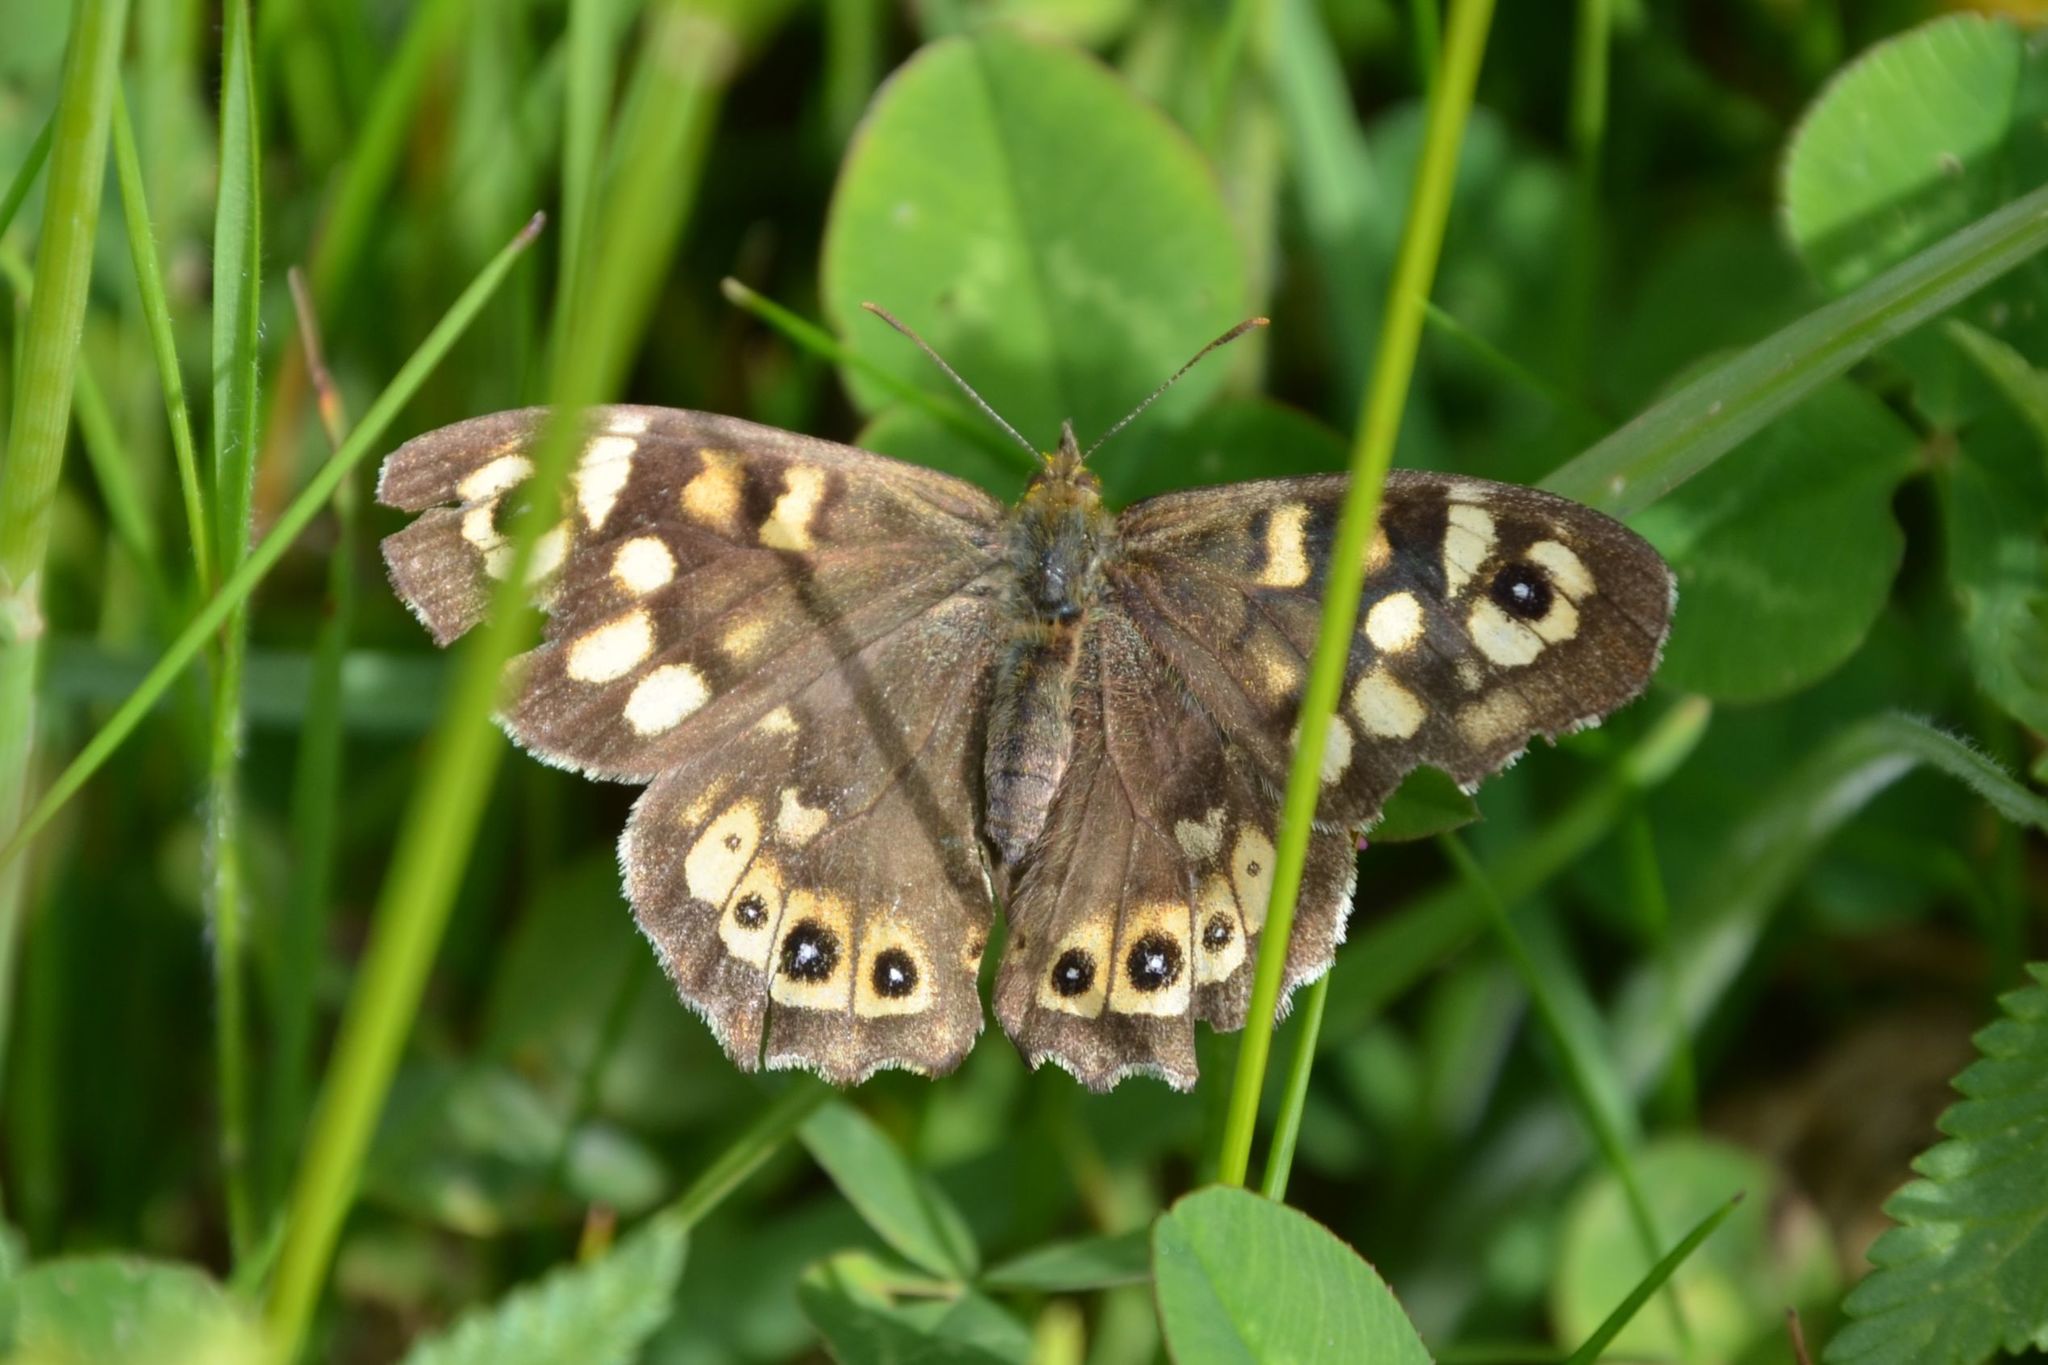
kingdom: Animalia
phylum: Arthropoda
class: Insecta
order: Lepidoptera
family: Nymphalidae
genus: Pararge
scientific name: Pararge aegeria
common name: Speckled wood
